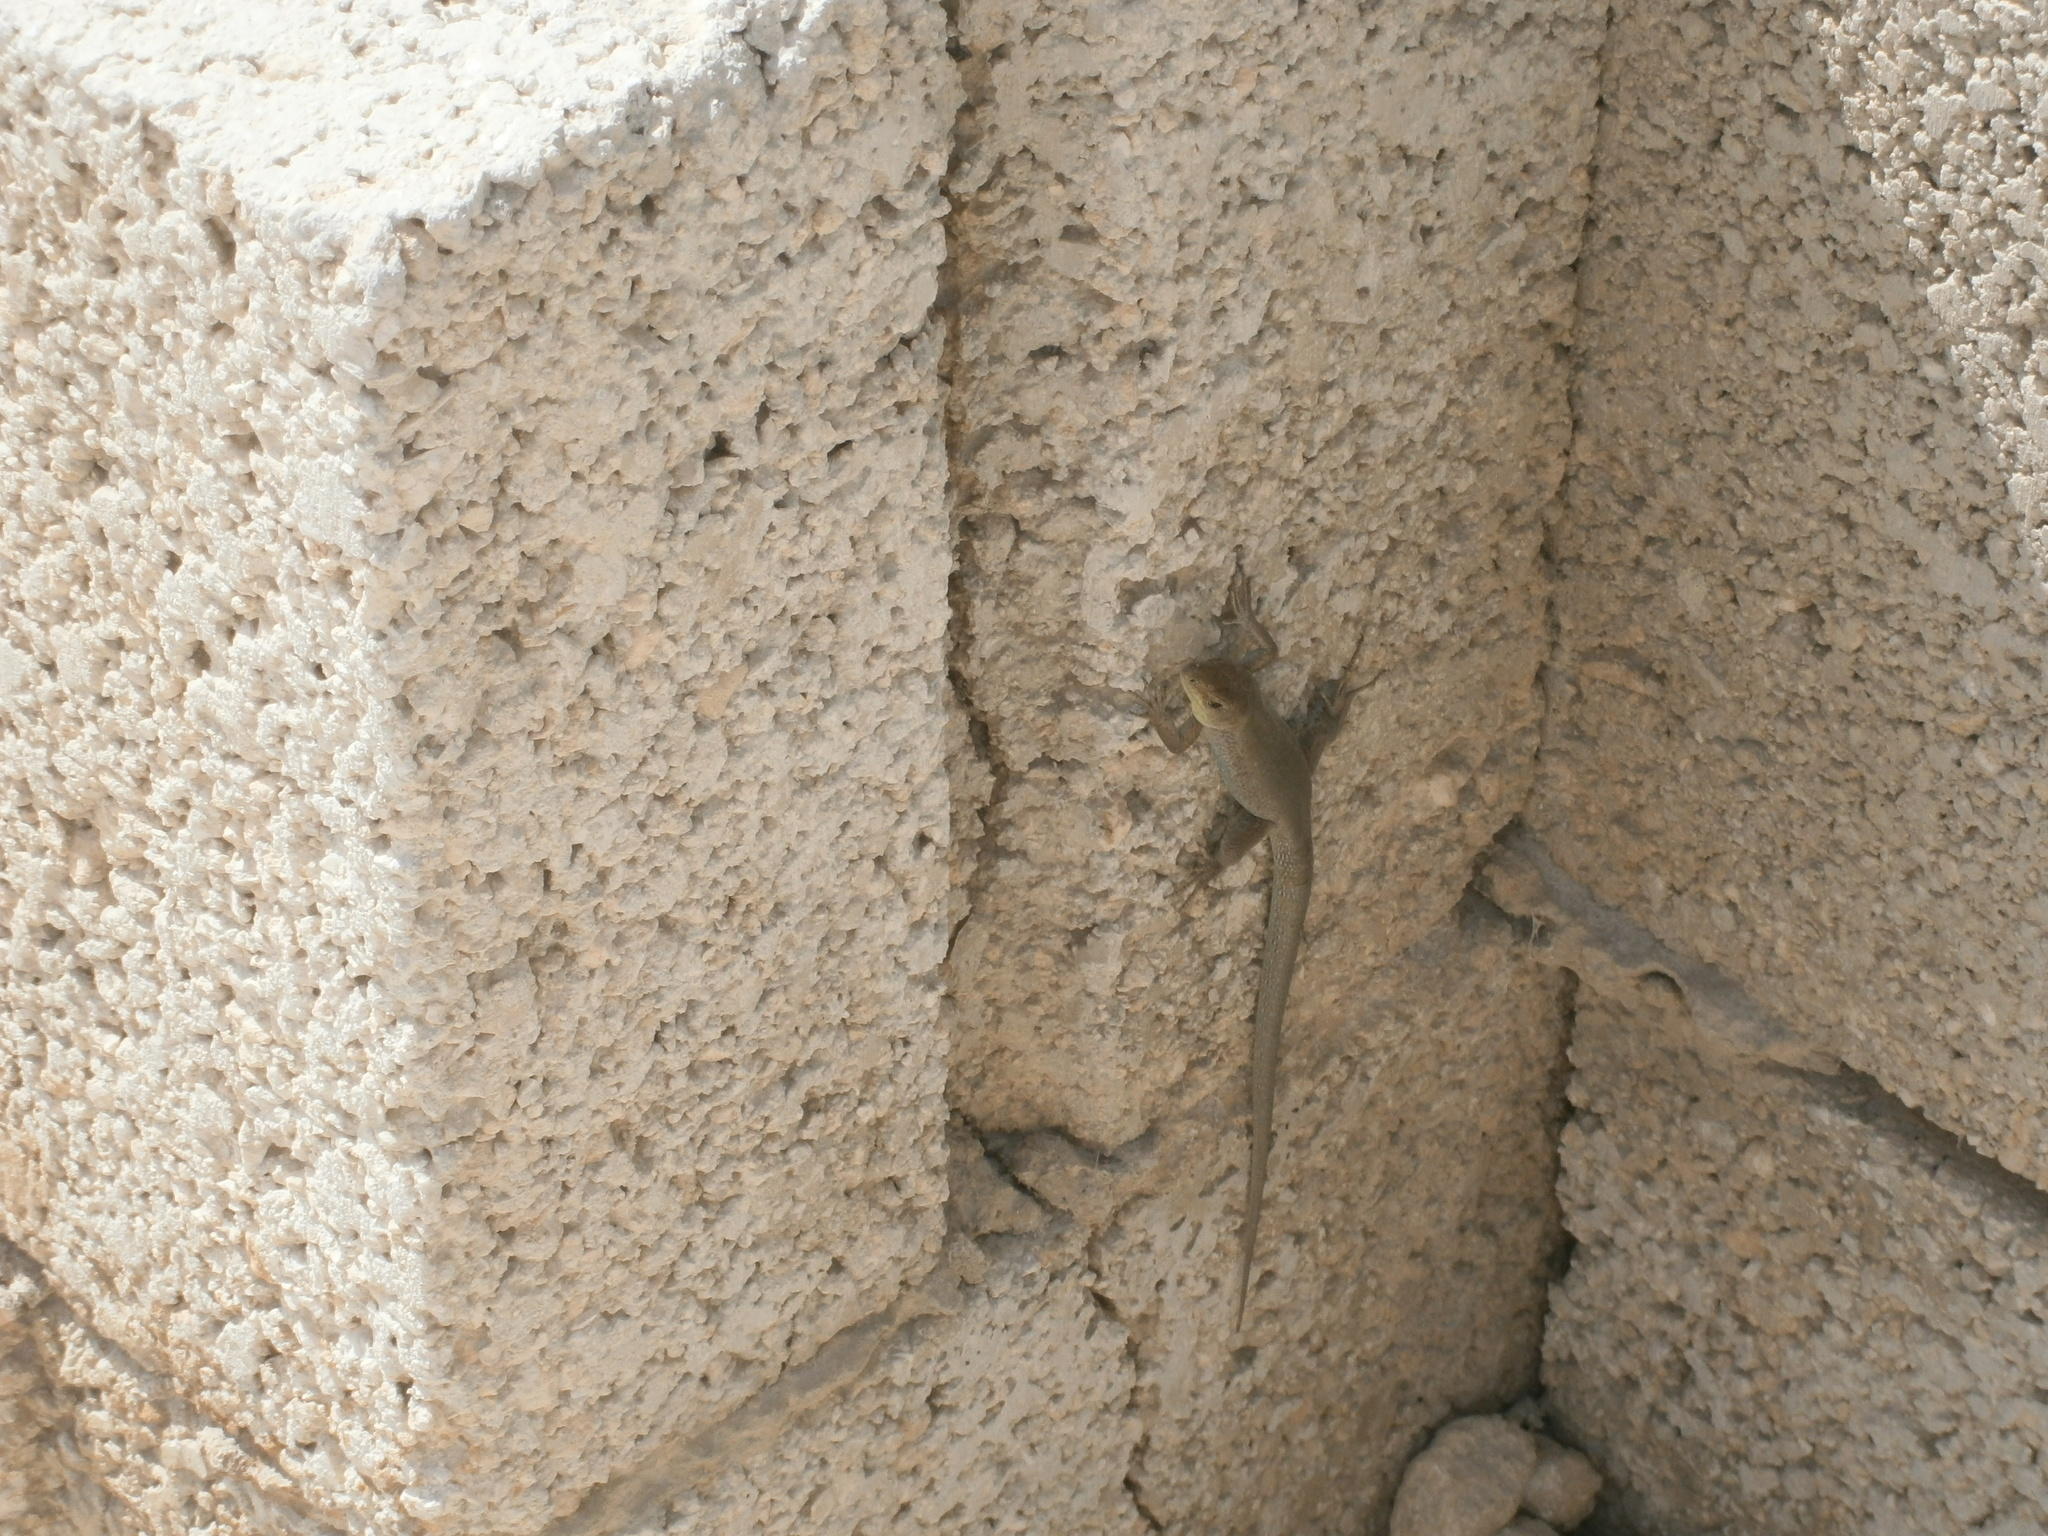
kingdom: Animalia
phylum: Chordata
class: Squamata
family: Lacertidae
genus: Podarcis
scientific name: Podarcis filfolensis
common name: Maltese wall lizard
